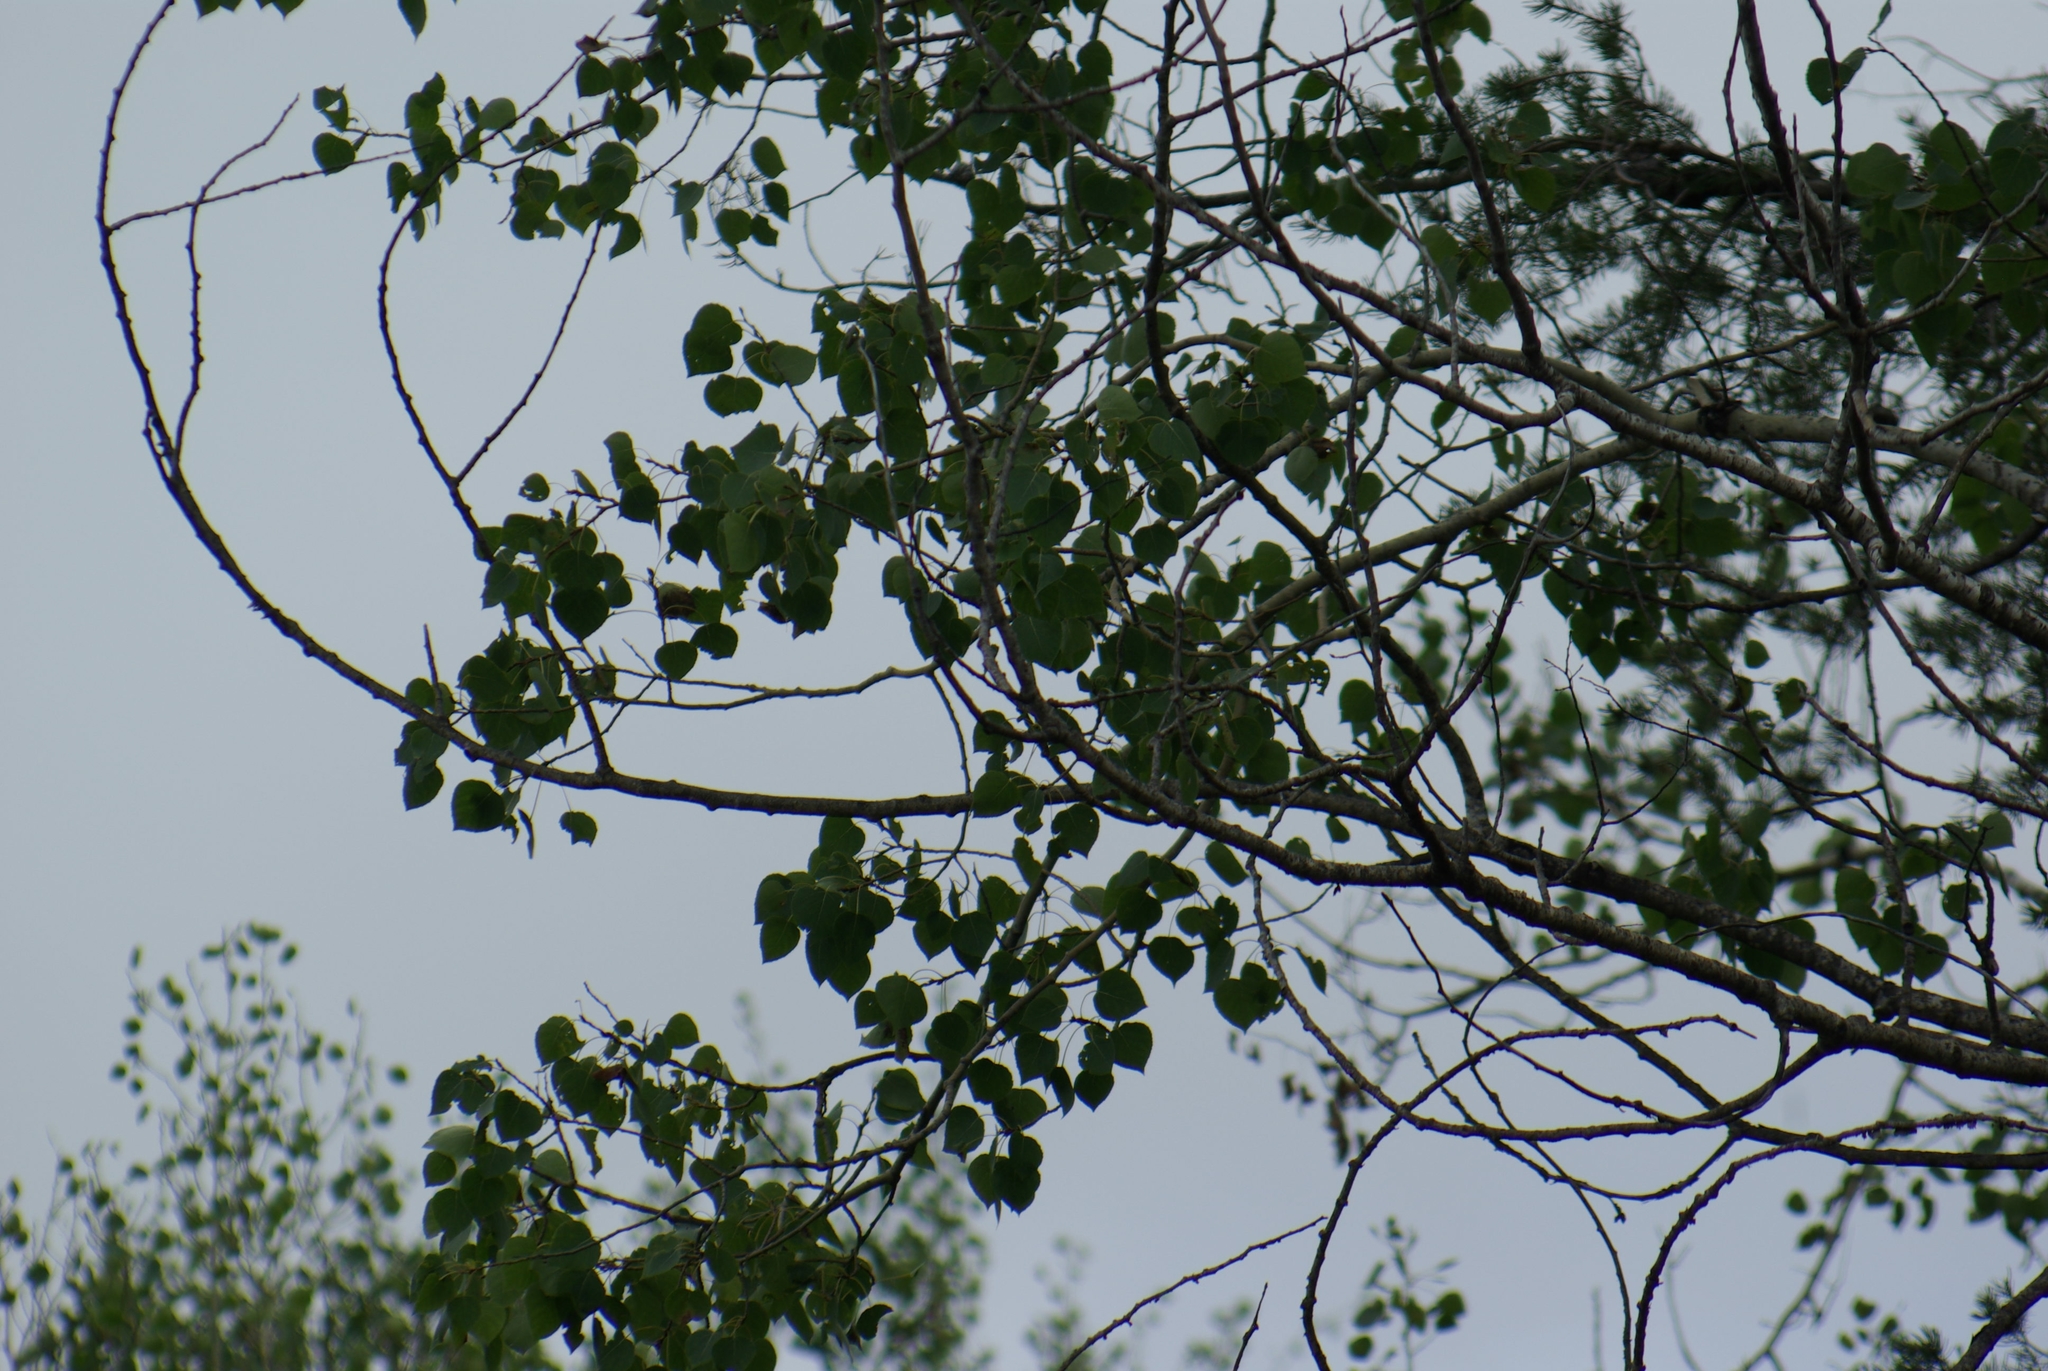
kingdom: Plantae
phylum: Tracheophyta
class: Magnoliopsida
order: Malpighiales
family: Salicaceae
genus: Populus
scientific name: Populus tremuloides
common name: Quaking aspen
